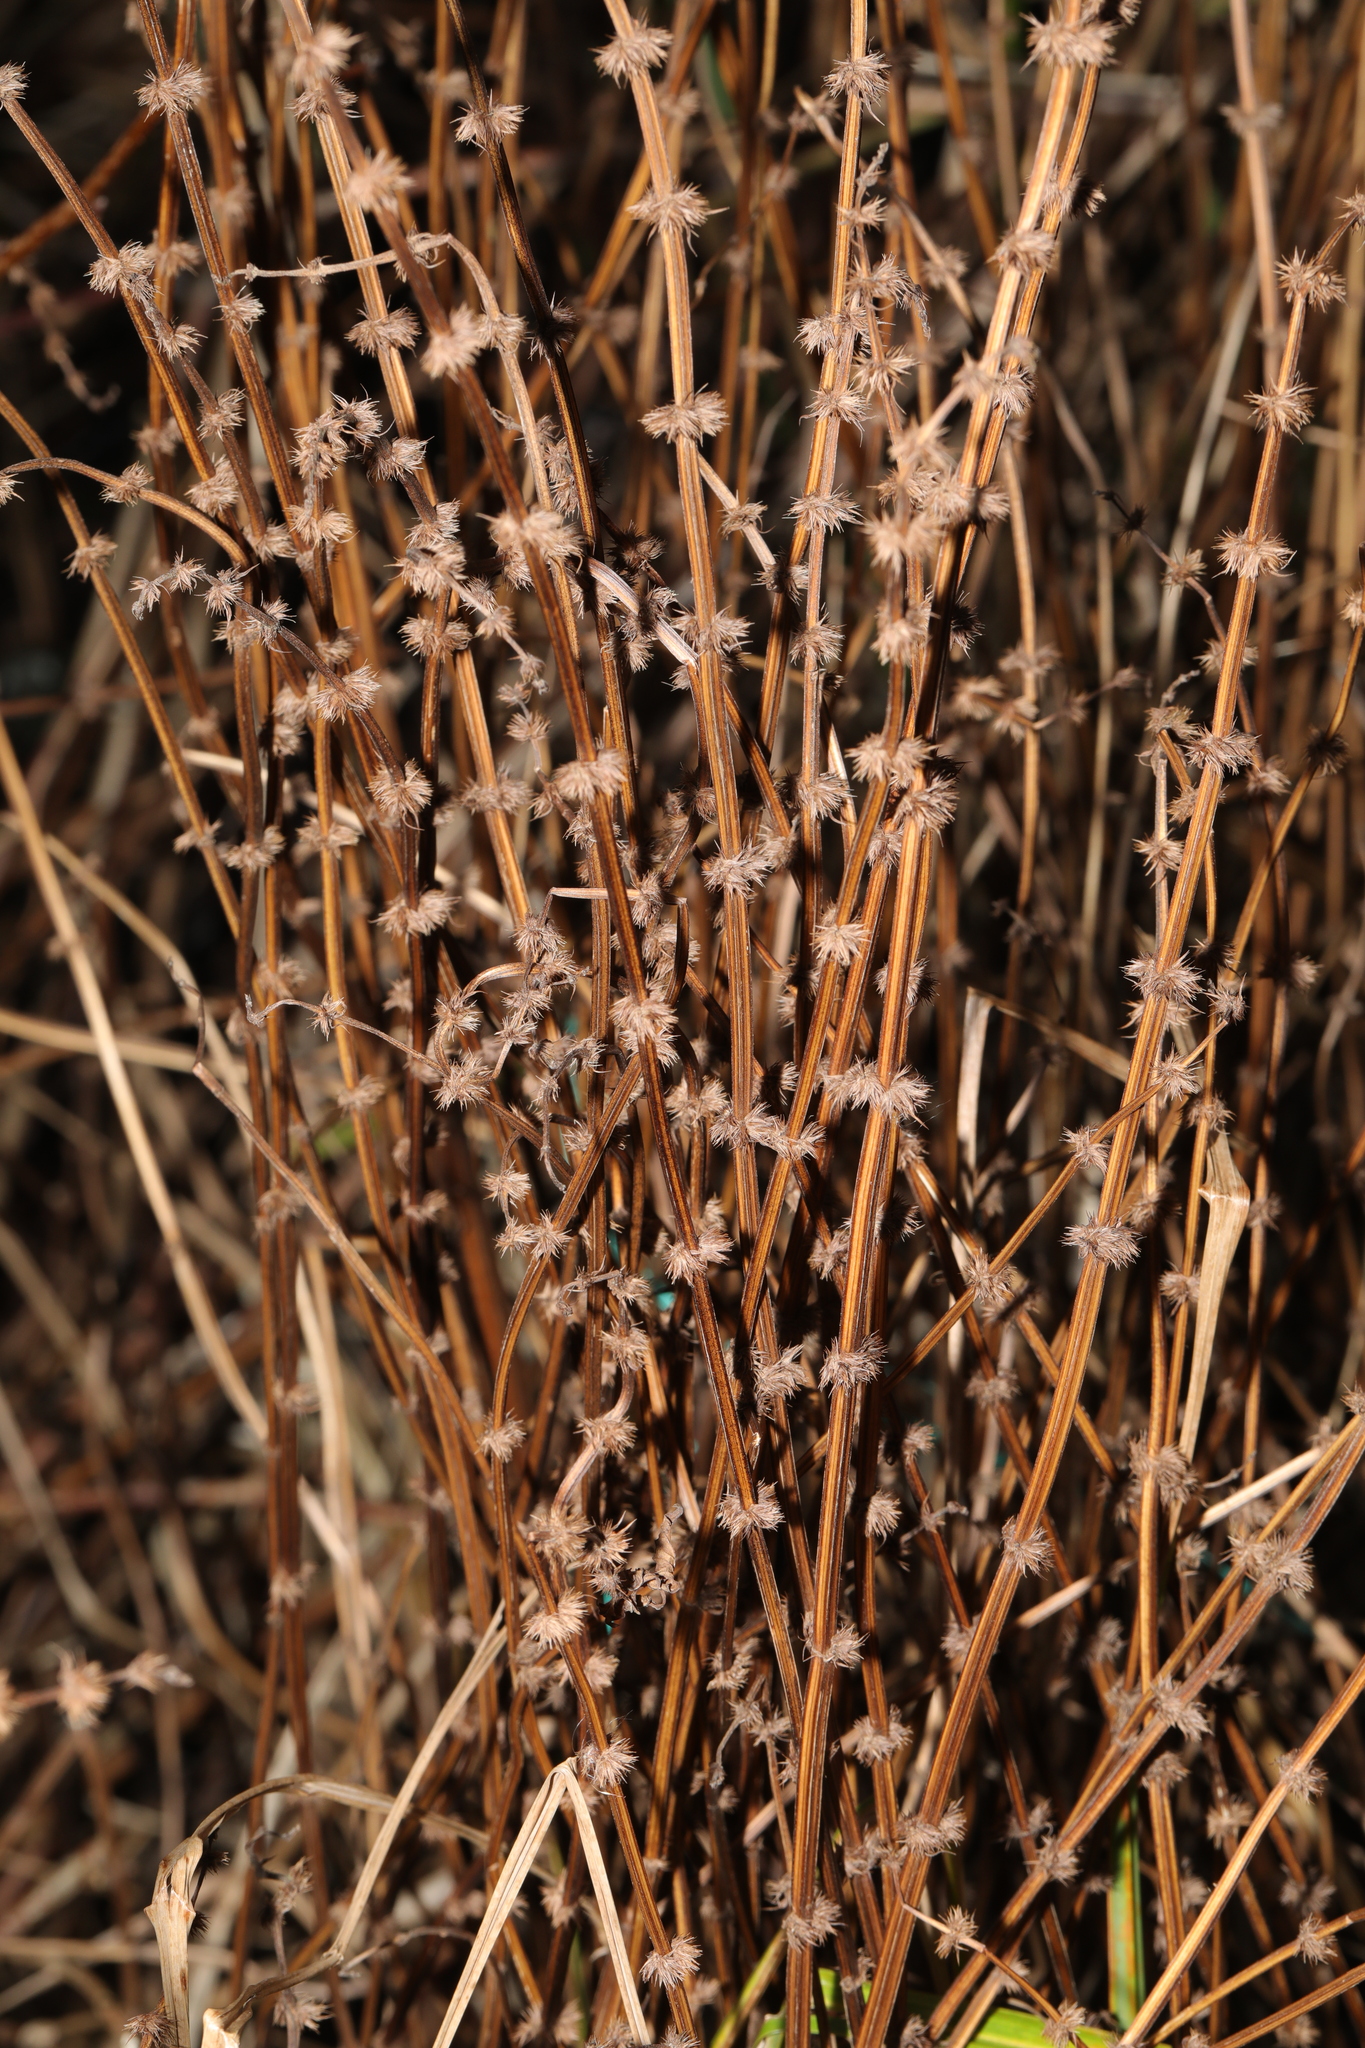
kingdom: Plantae
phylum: Tracheophyta
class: Magnoliopsida
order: Lamiales
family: Lamiaceae
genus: Lycopus
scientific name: Lycopus europaeus
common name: European bugleweed
